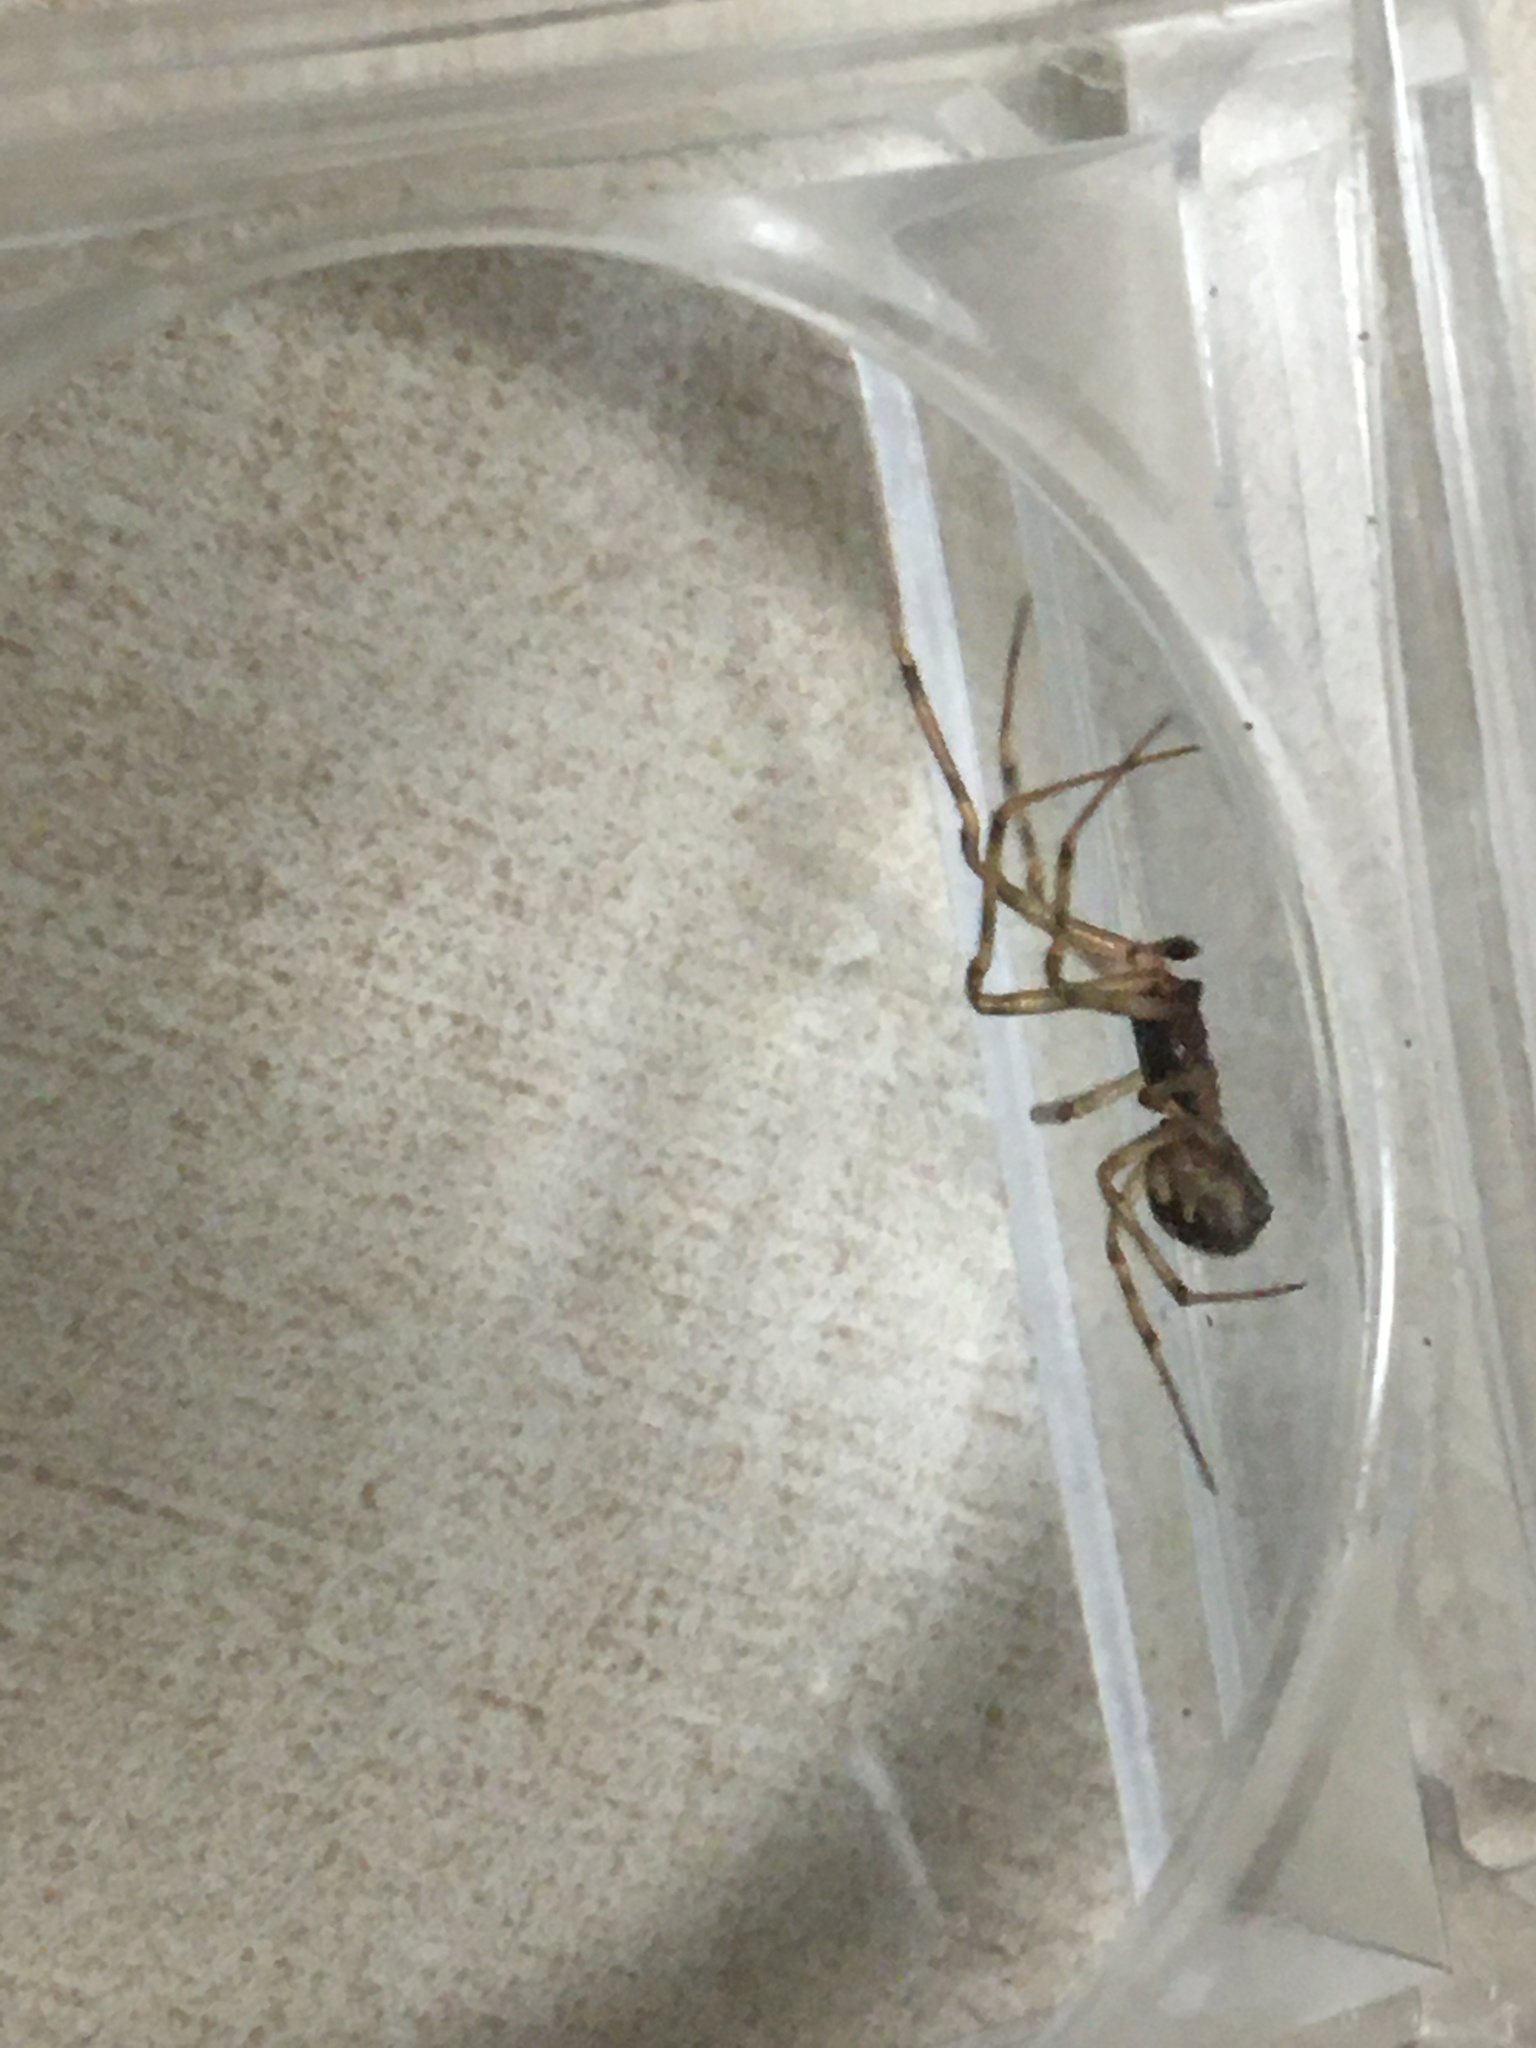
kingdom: Animalia
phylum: Arthropoda
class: Arachnida
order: Araneae
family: Theridiidae
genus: Steatoda
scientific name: Steatoda triangulosa
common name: Triangulate bud spider
